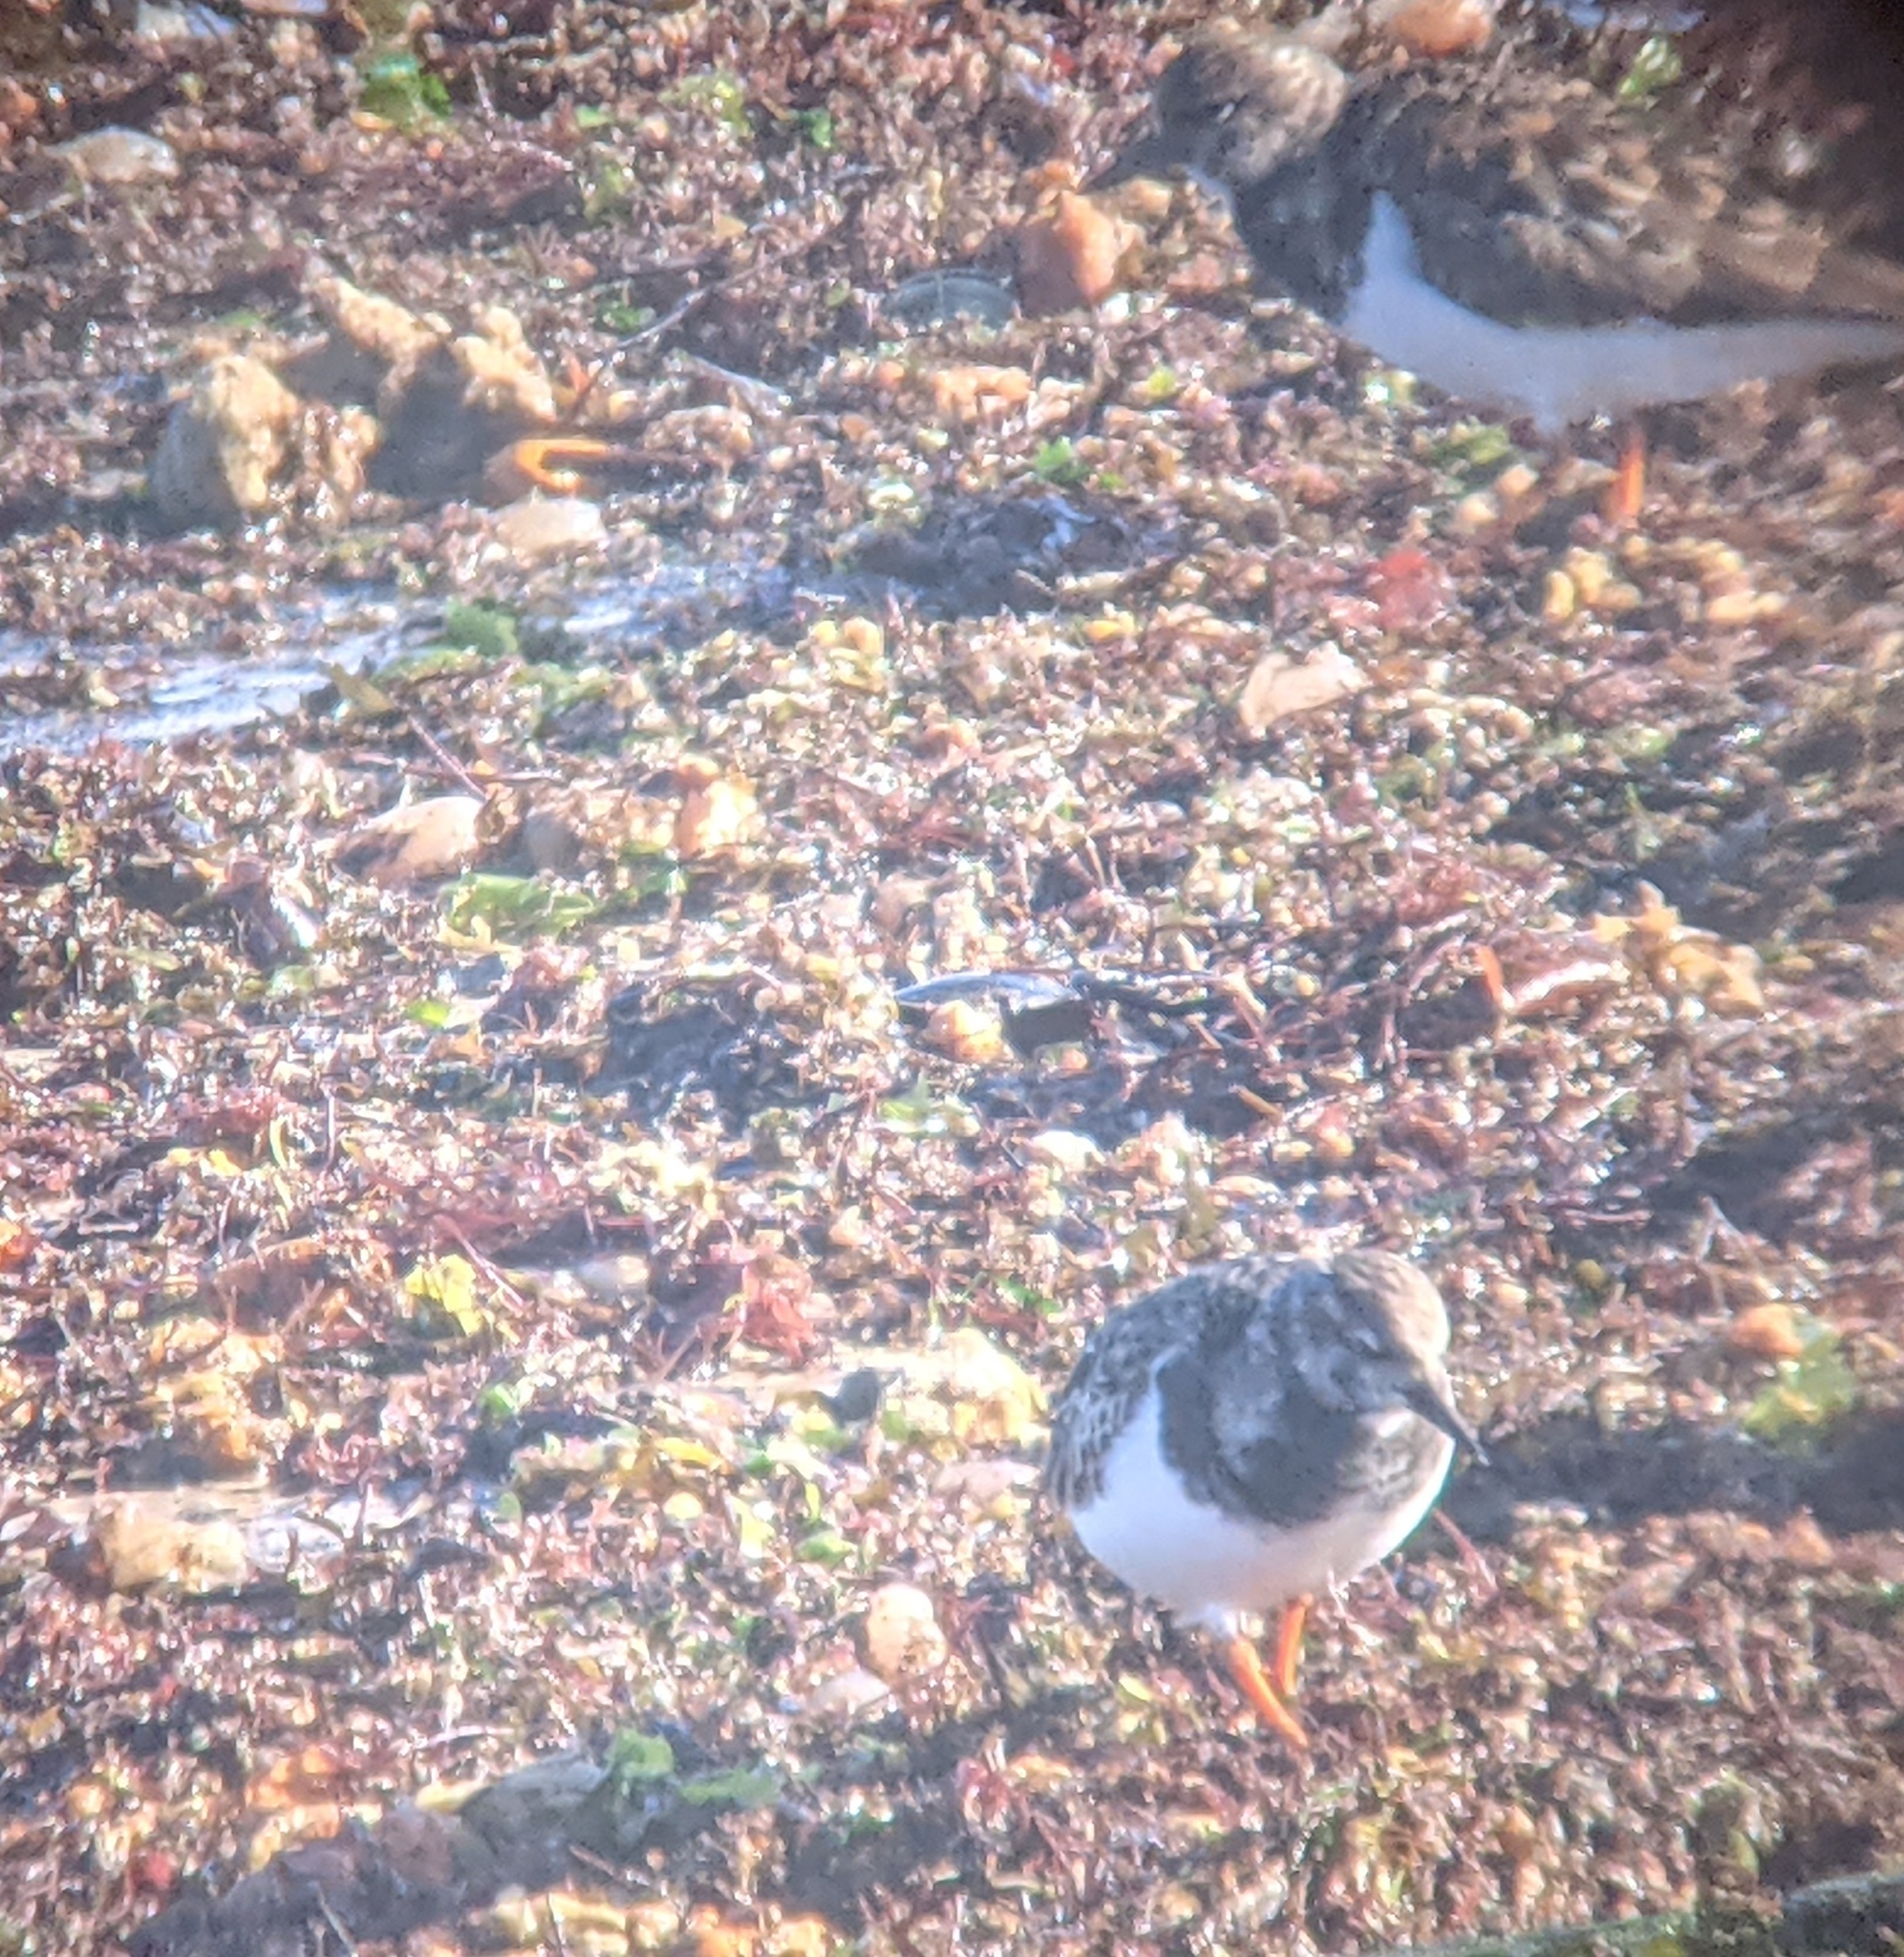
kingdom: Animalia
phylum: Chordata
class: Aves
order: Charadriiformes
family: Scolopacidae
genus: Arenaria
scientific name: Arenaria interpres
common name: Ruddy turnstone
